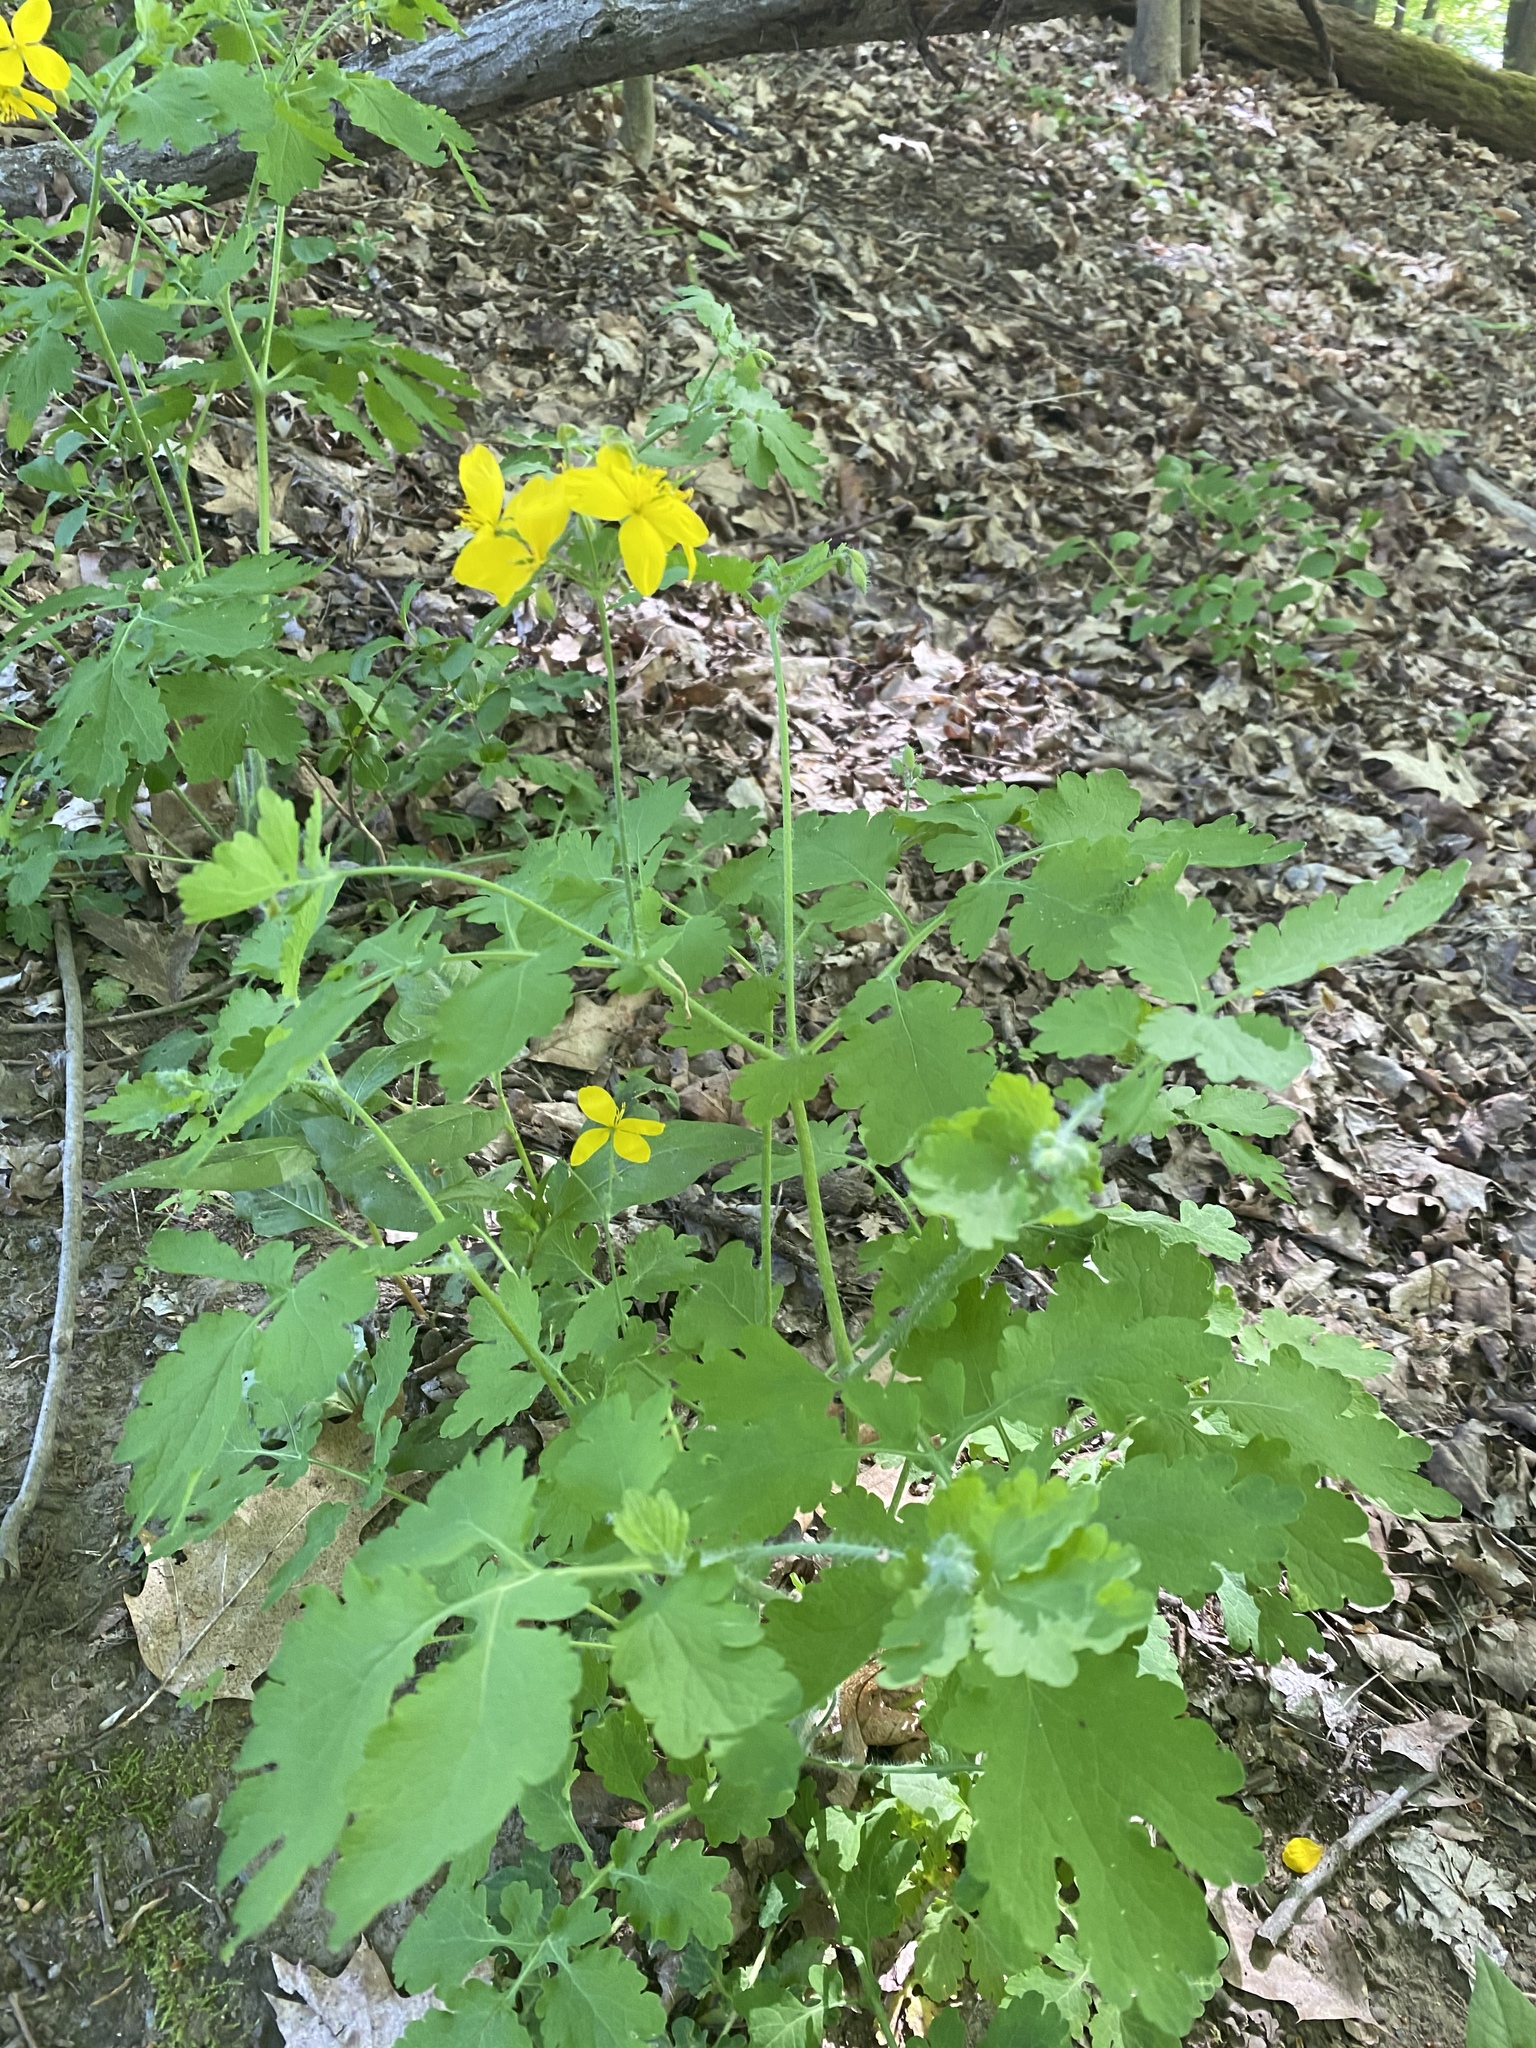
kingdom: Plantae
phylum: Tracheophyta
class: Magnoliopsida
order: Ranunculales
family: Papaveraceae
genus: Chelidonium
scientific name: Chelidonium majus
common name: Greater celandine
